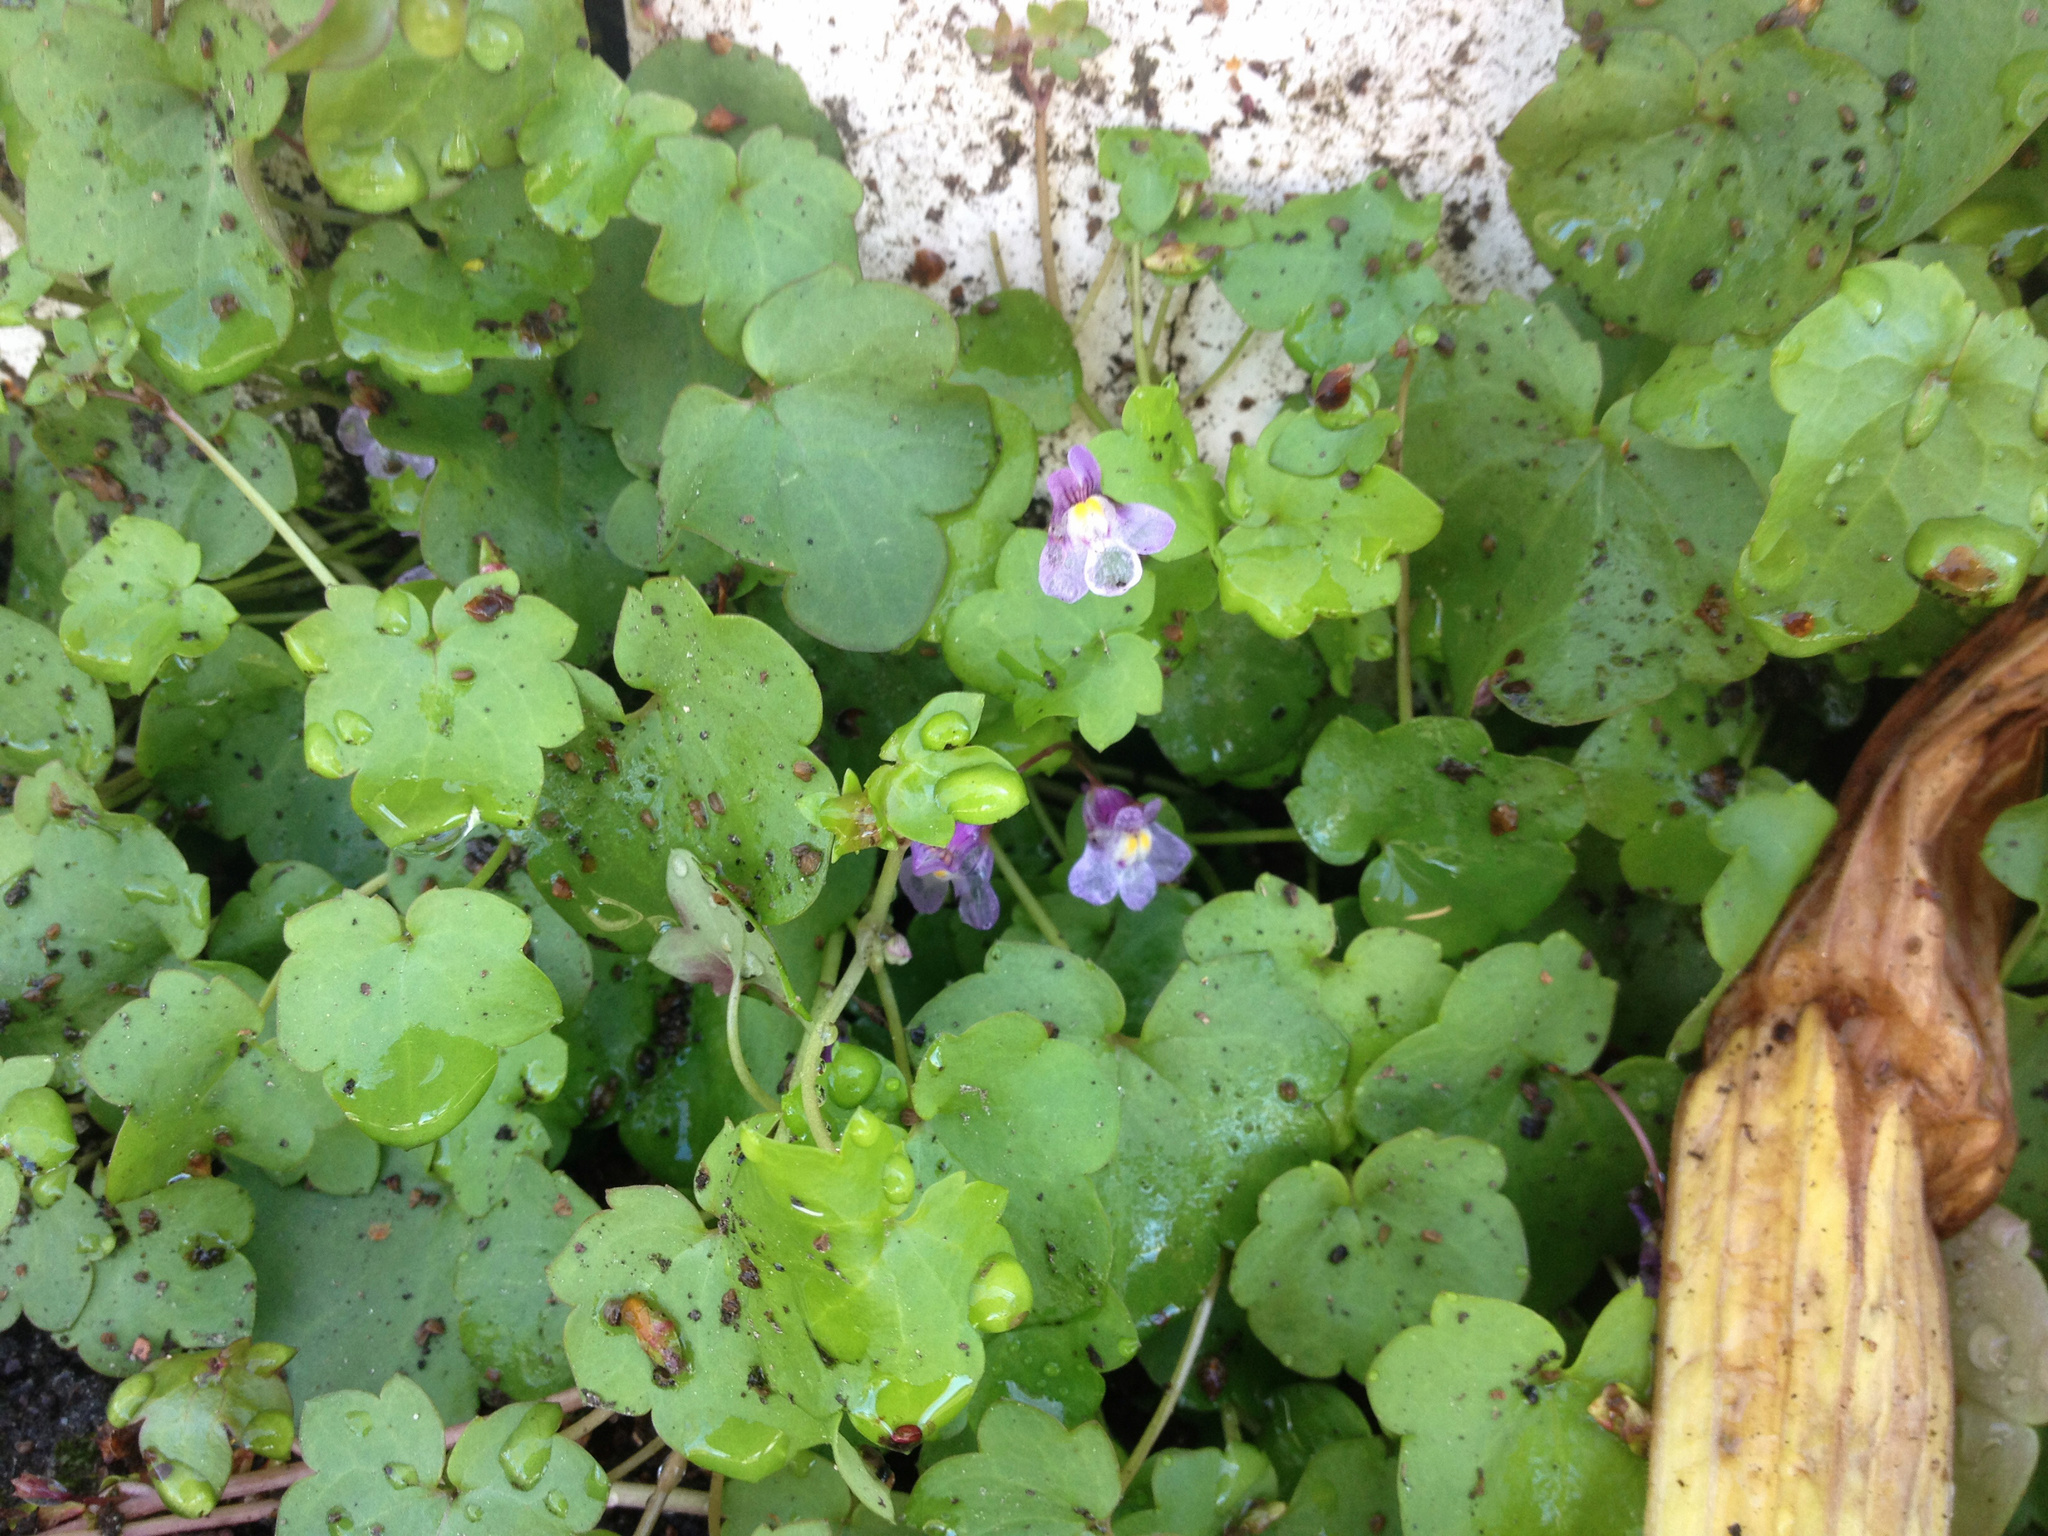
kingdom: Plantae
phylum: Tracheophyta
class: Magnoliopsida
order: Lamiales
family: Plantaginaceae
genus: Cymbalaria
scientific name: Cymbalaria muralis
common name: Ivy-leaved toadflax
